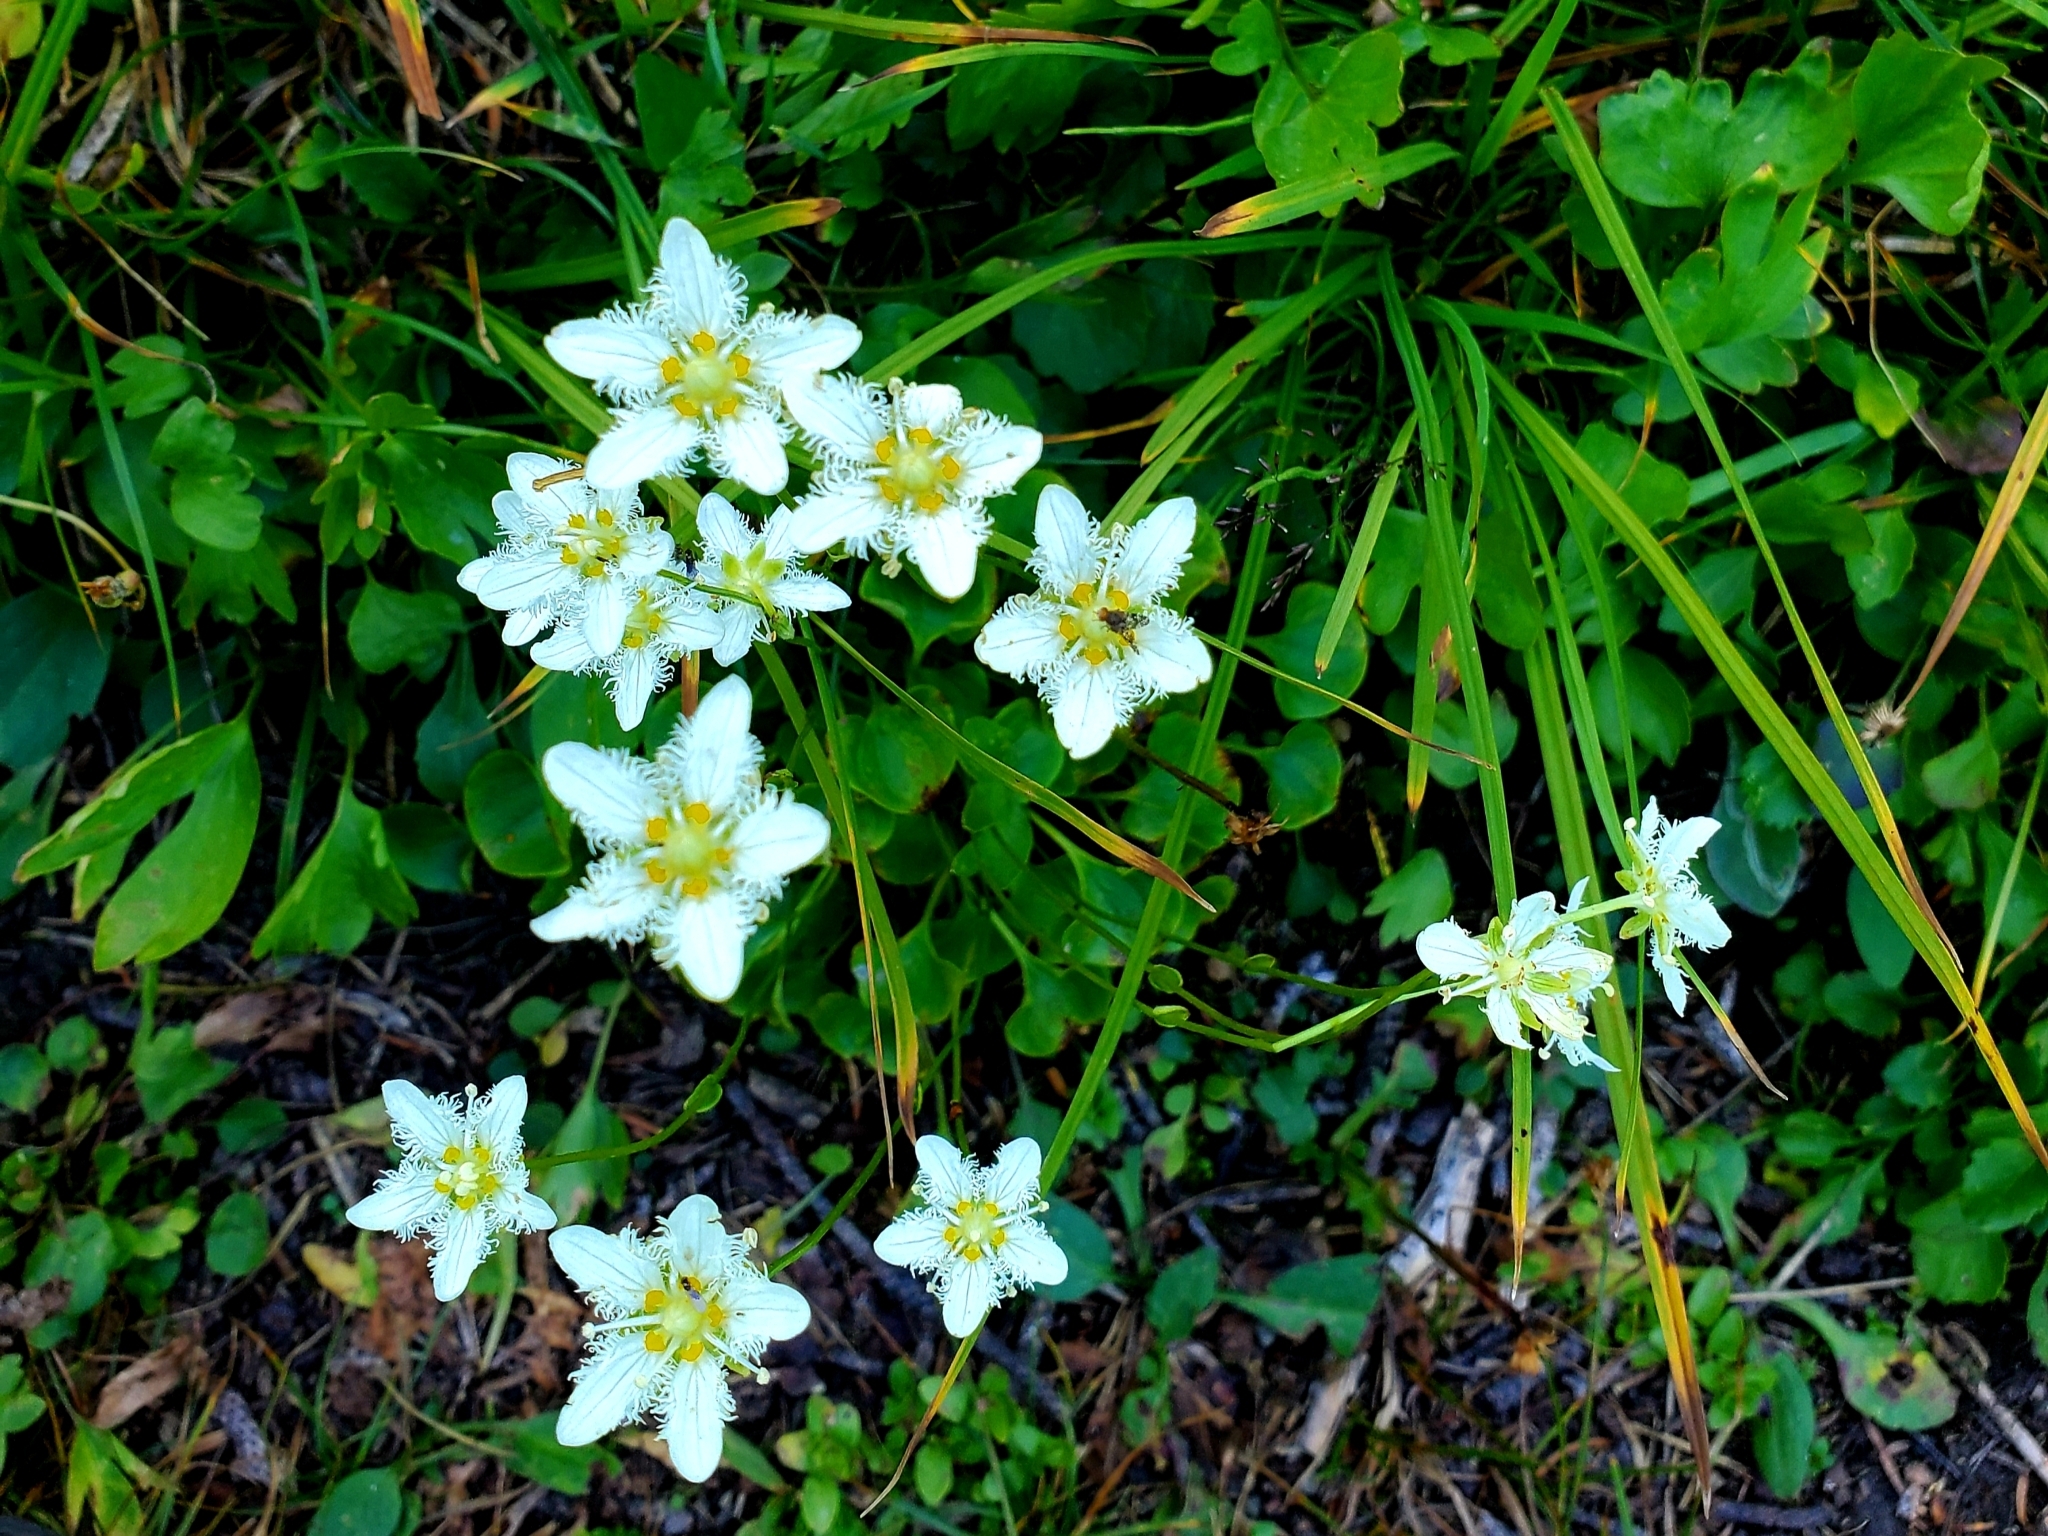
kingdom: Plantae
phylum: Tracheophyta
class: Magnoliopsida
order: Celastrales
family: Parnassiaceae
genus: Parnassia
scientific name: Parnassia fimbriata
